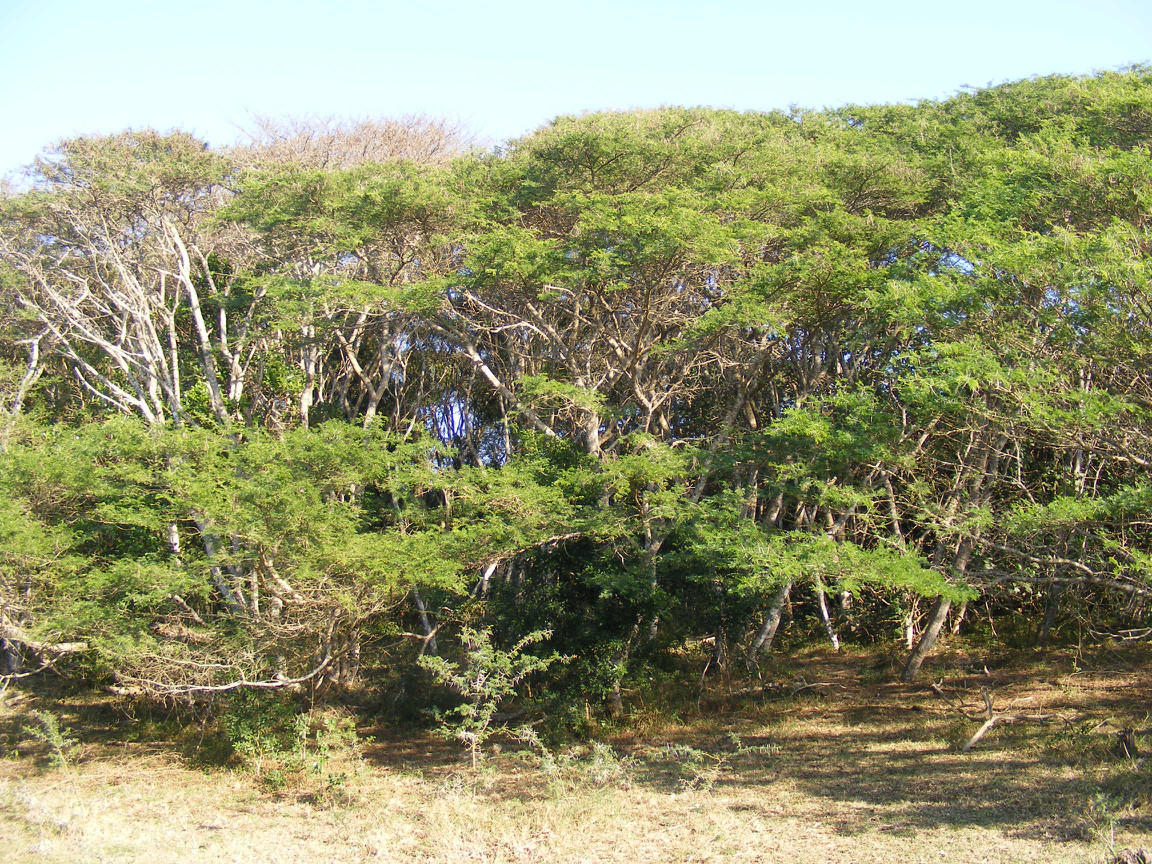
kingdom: Plantae
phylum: Tracheophyta
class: Magnoliopsida
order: Fabales
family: Fabaceae
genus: Vachellia
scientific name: Vachellia kosiensis
